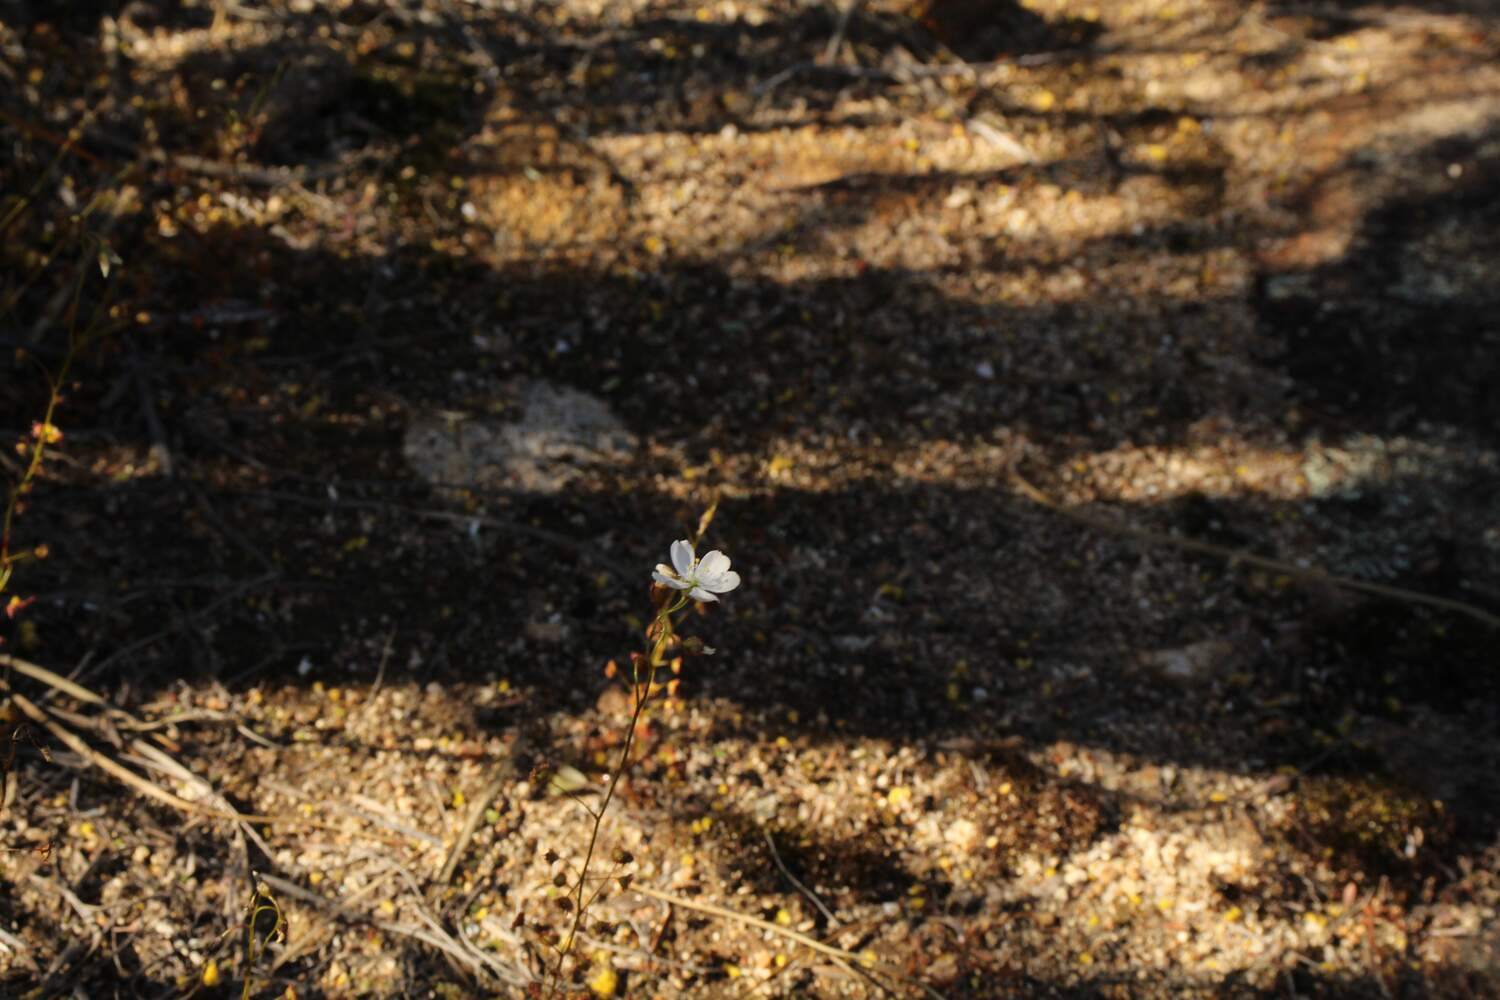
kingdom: Plantae
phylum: Tracheophyta
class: Magnoliopsida
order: Caryophyllales
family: Droseraceae
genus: Drosera
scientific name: Drosera andersoniana
